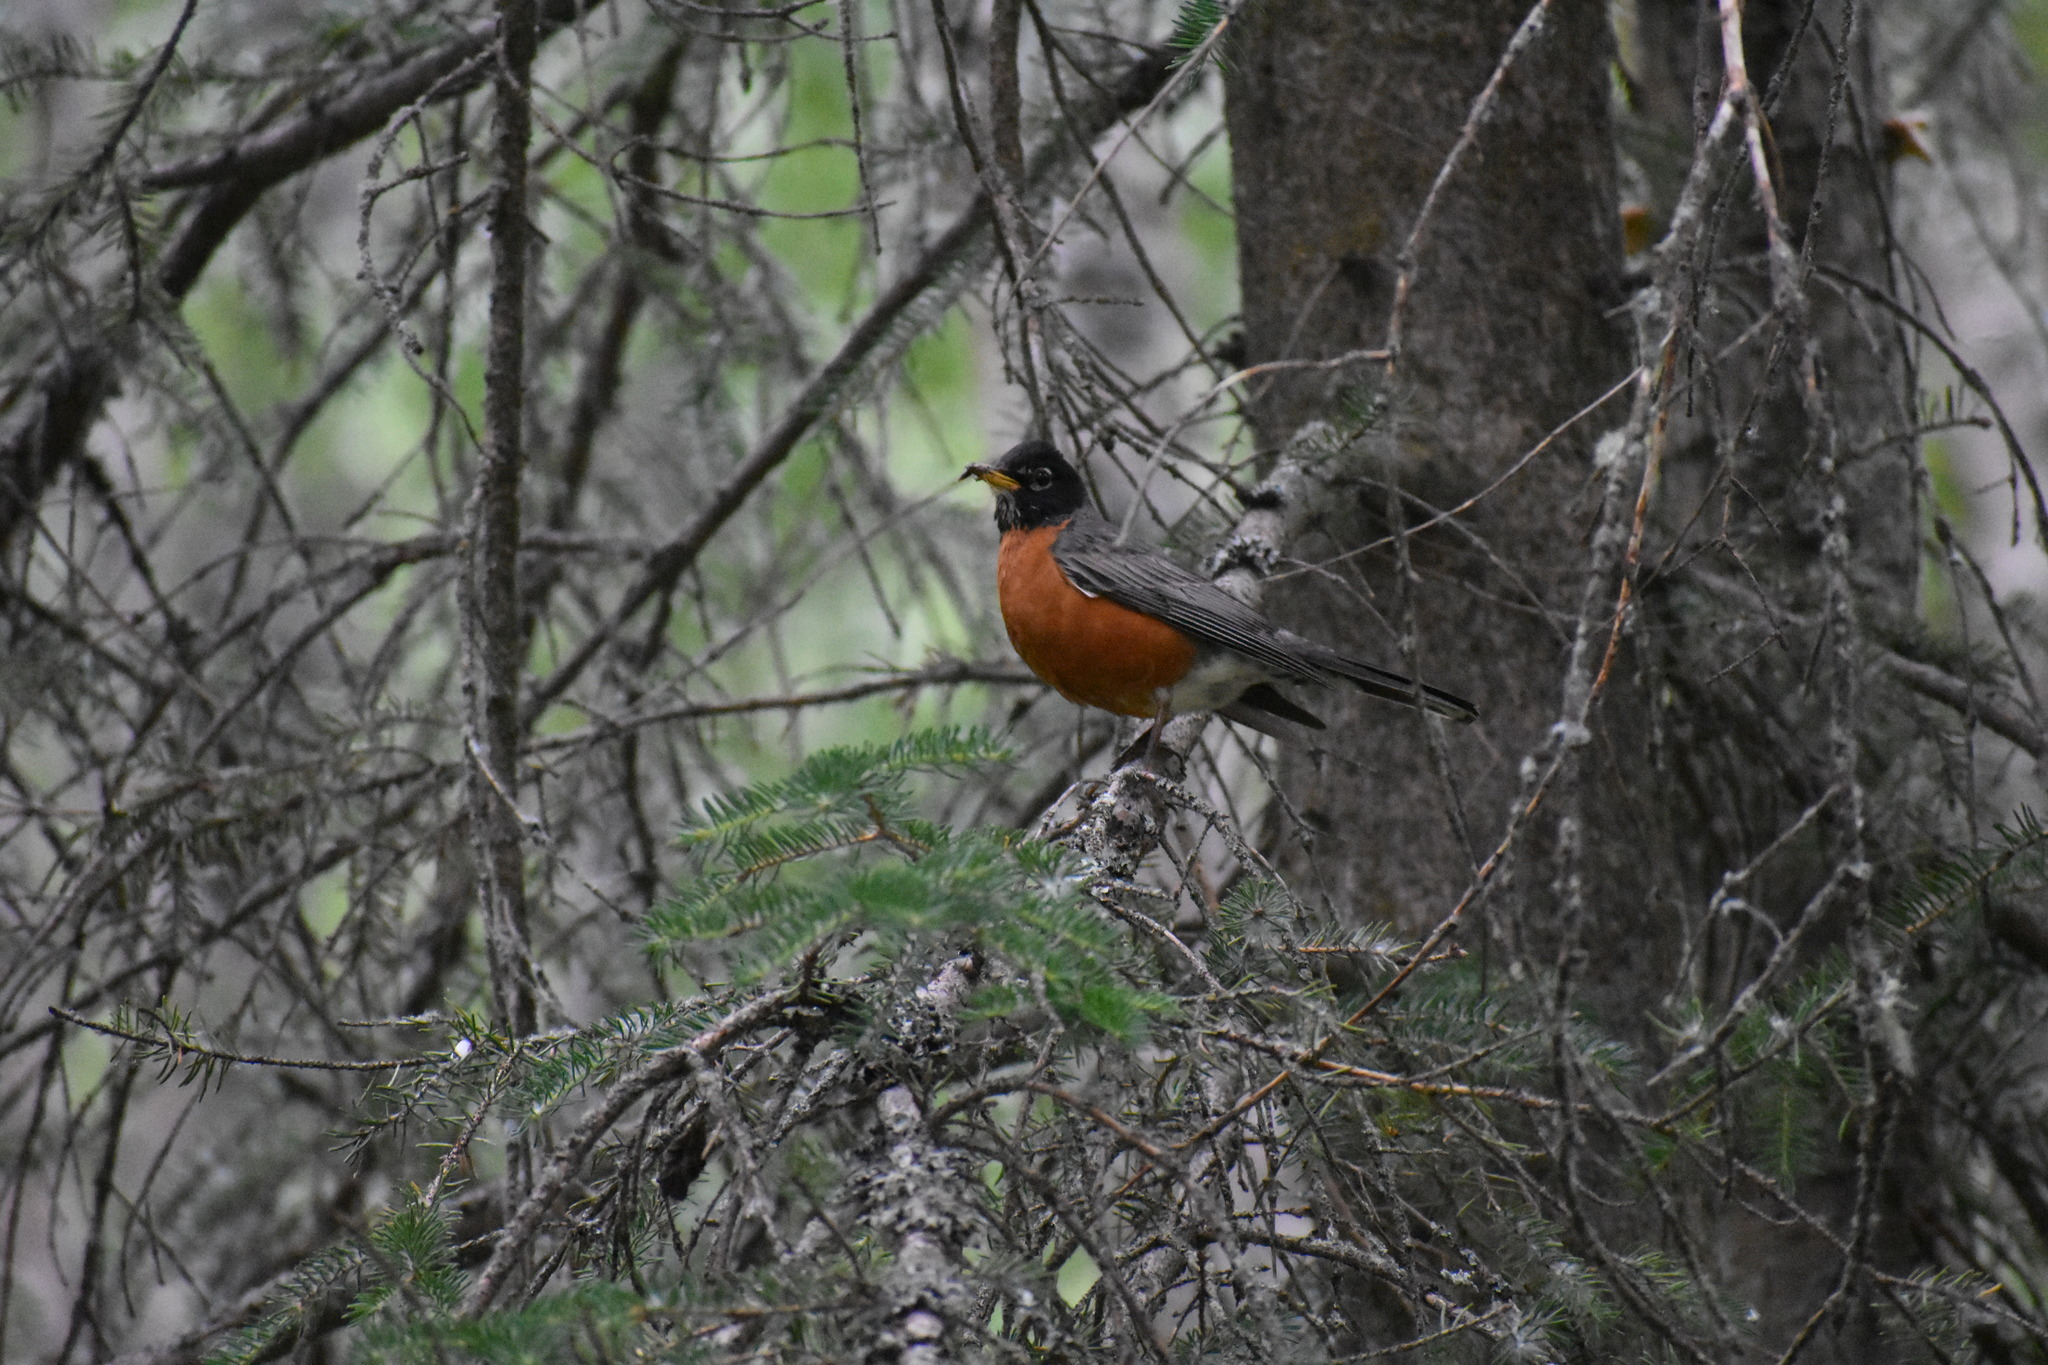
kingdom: Animalia
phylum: Chordata
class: Aves
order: Passeriformes
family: Turdidae
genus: Turdus
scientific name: Turdus migratorius
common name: American robin
